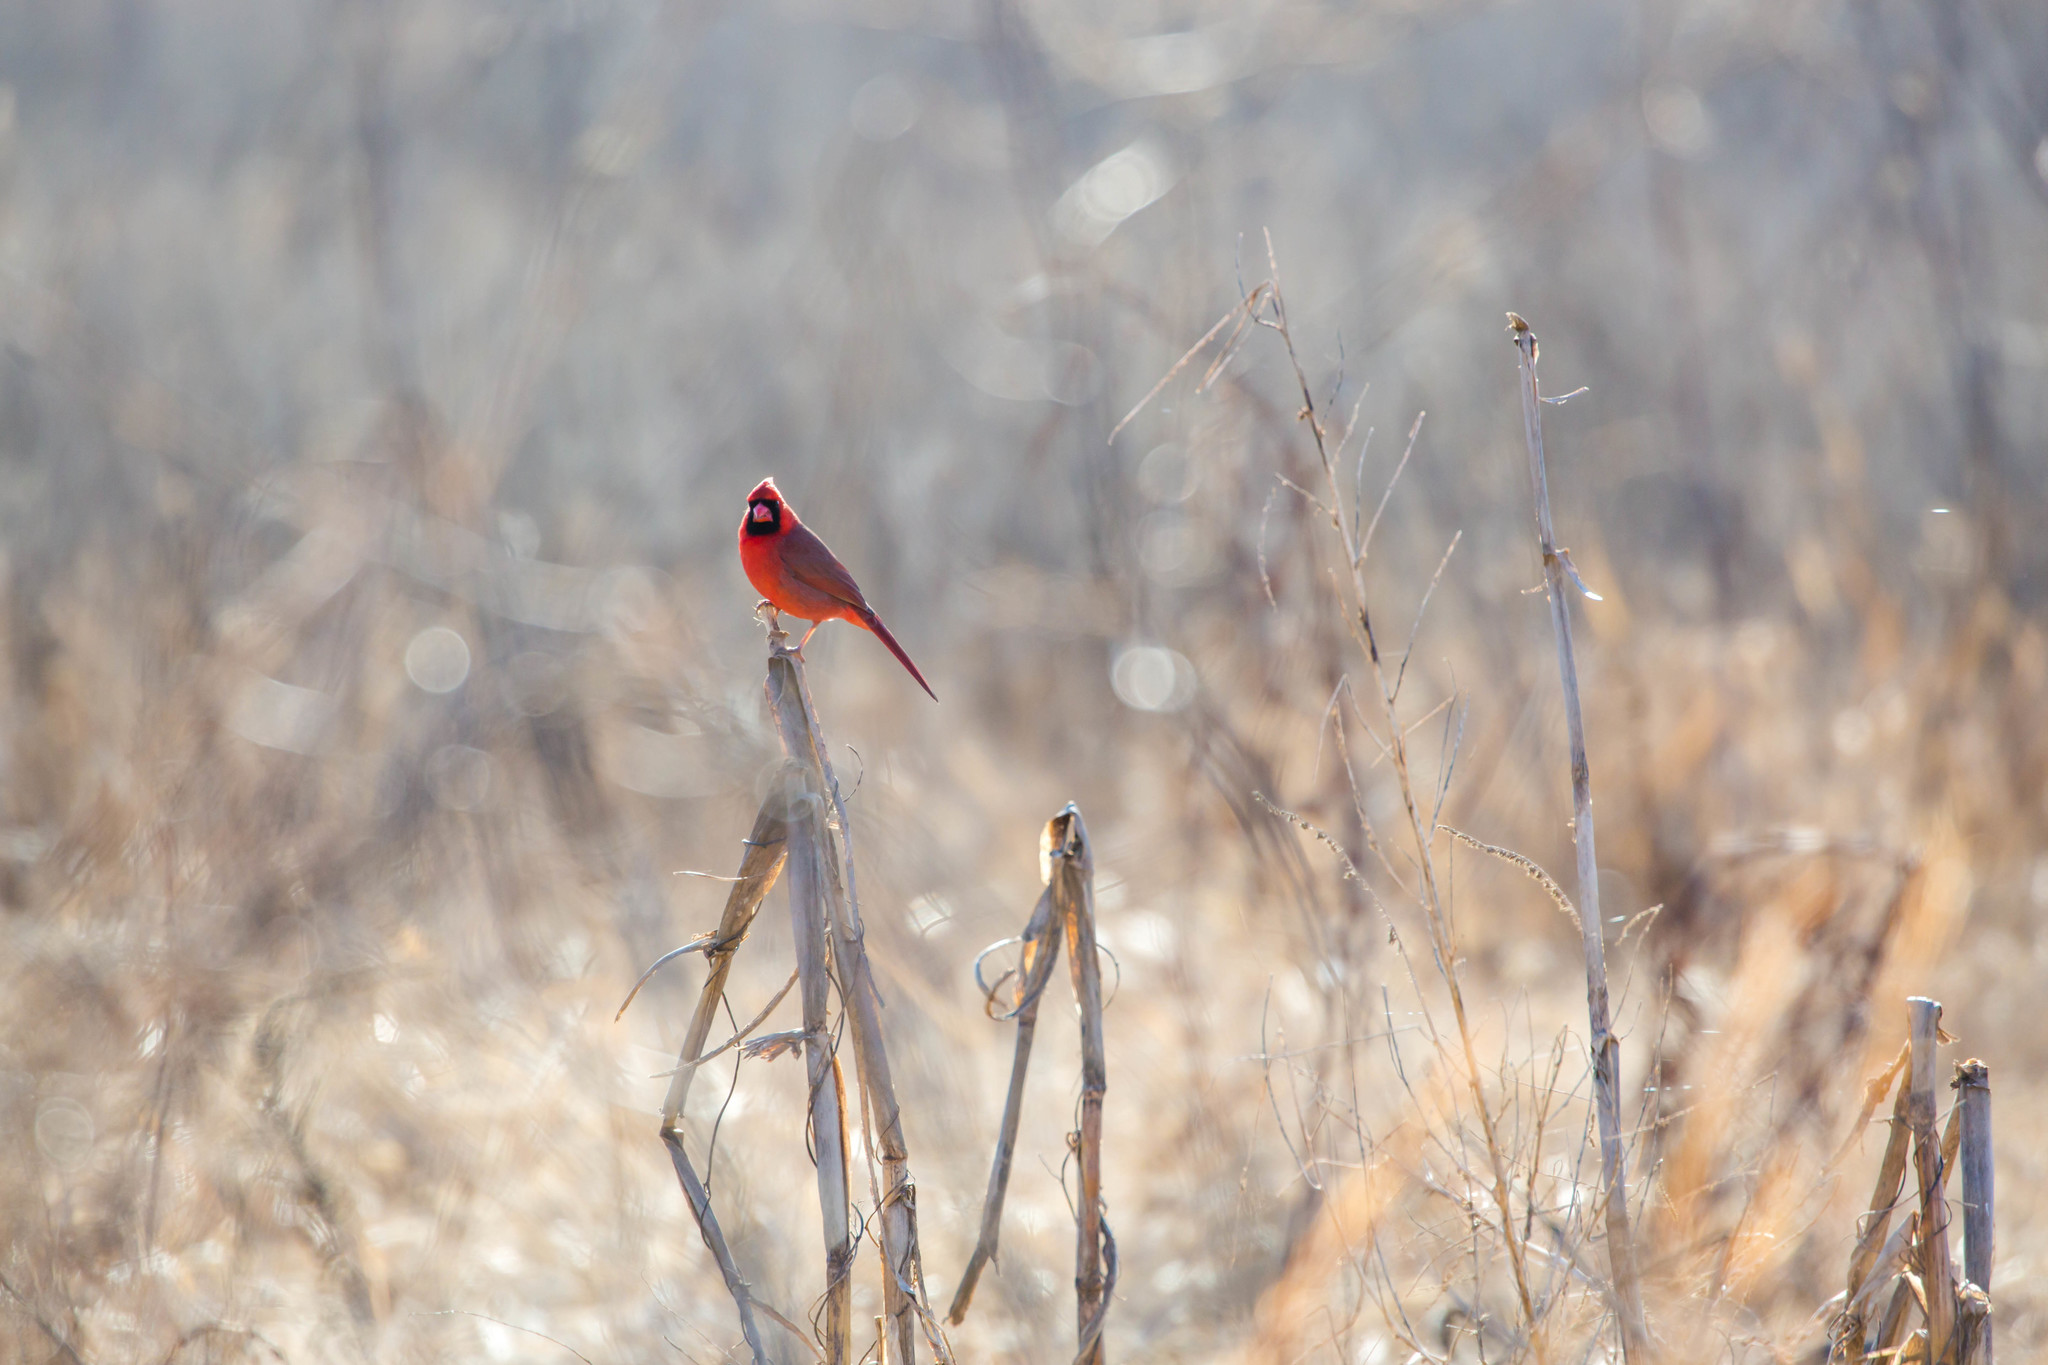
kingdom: Animalia
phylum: Chordata
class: Aves
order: Passeriformes
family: Cardinalidae
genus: Cardinalis
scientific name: Cardinalis cardinalis
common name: Northern cardinal
